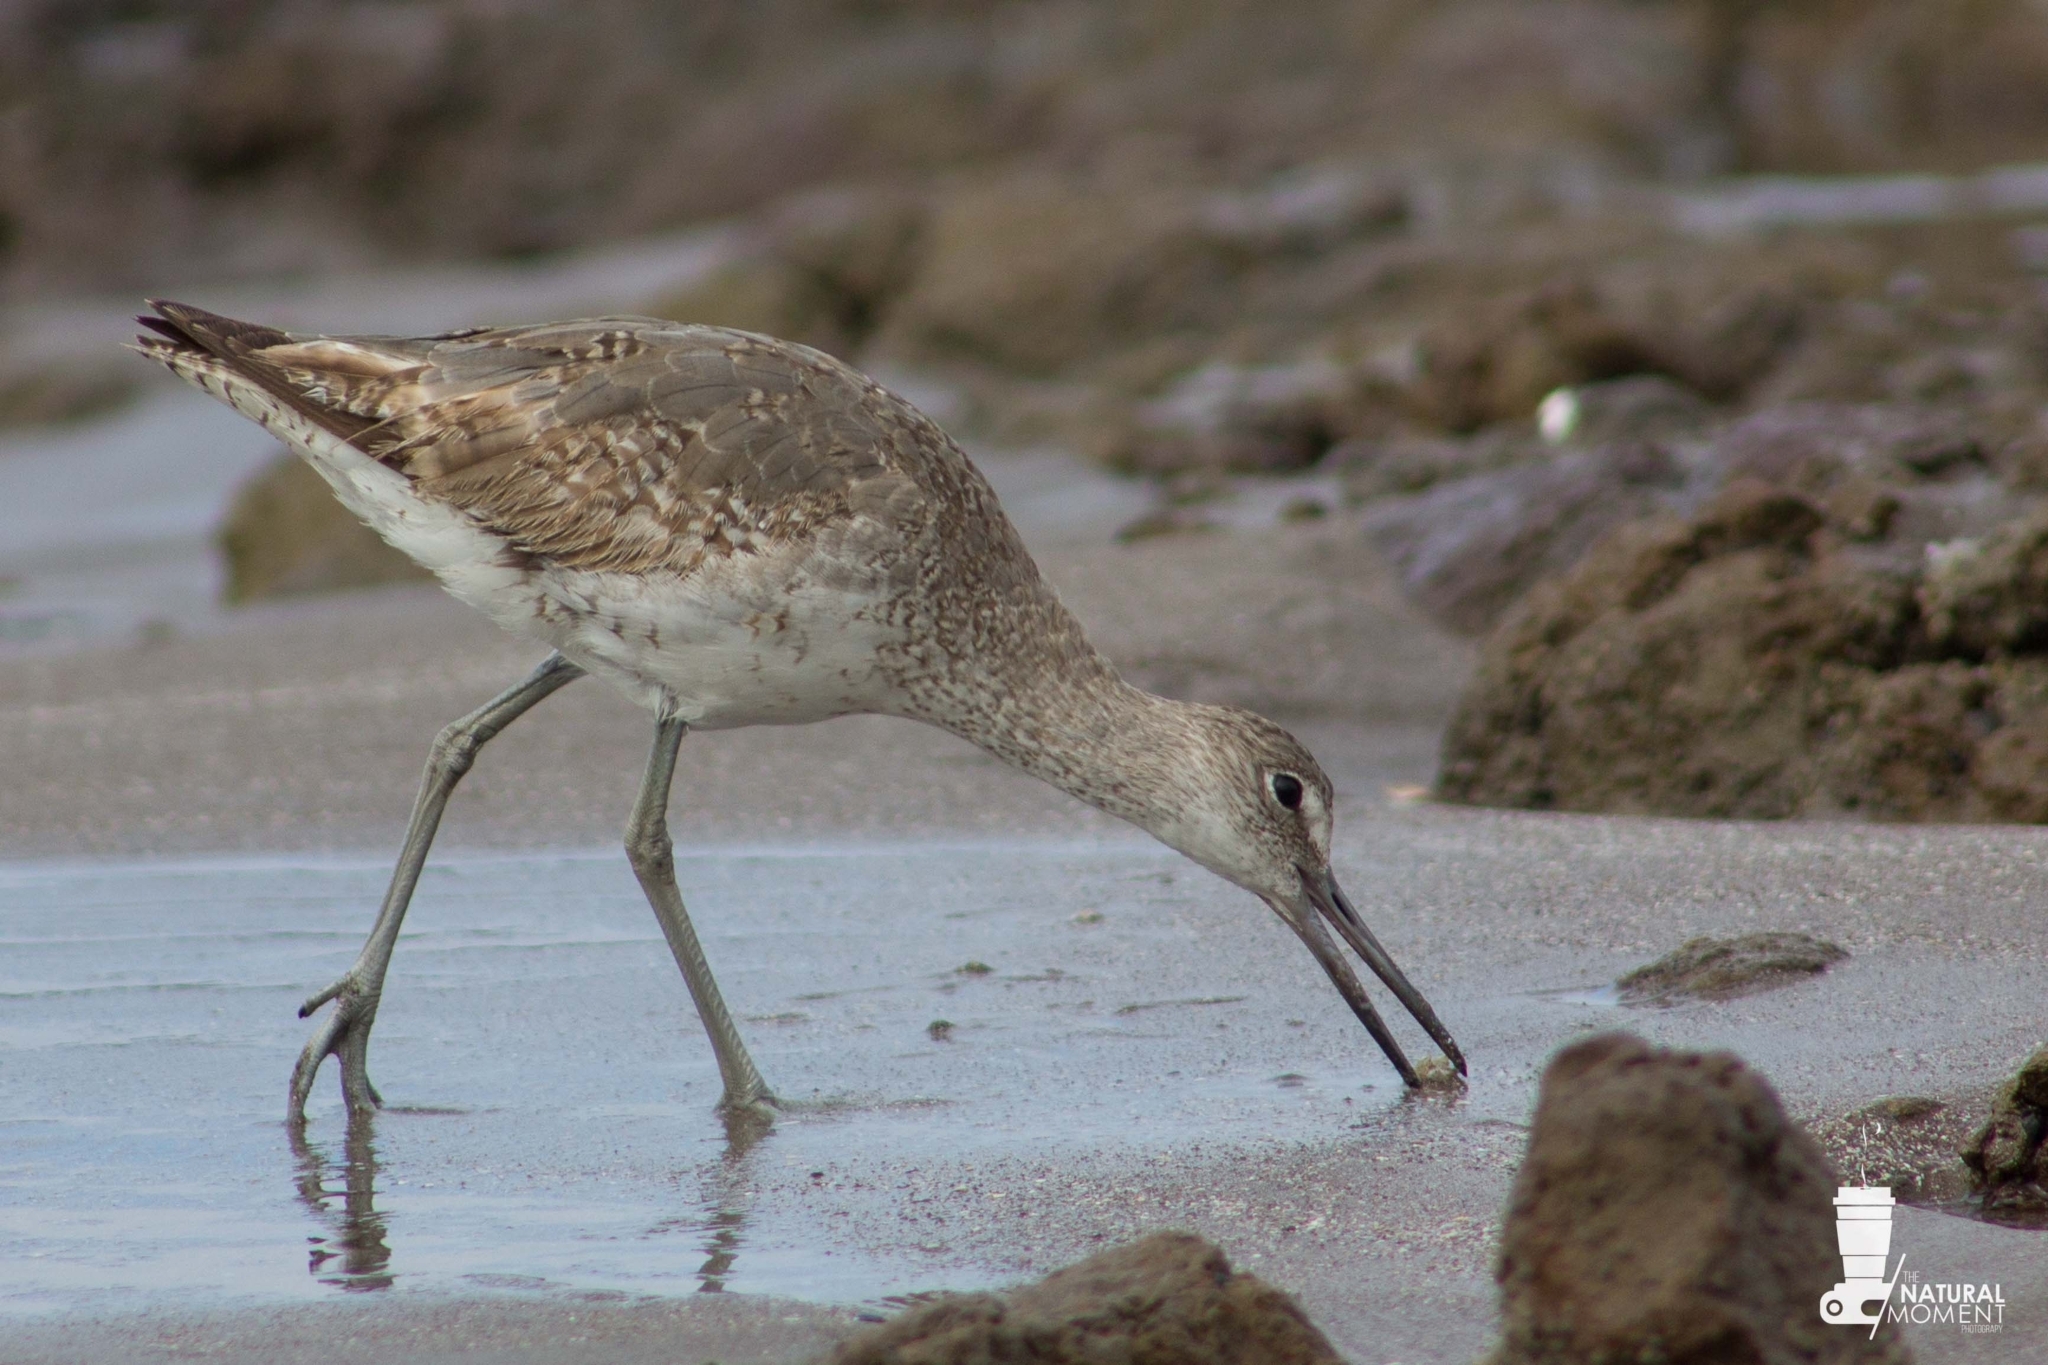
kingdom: Animalia
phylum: Chordata
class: Aves
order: Charadriiformes
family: Scolopacidae
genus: Tringa
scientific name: Tringa semipalmata
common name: Willet
